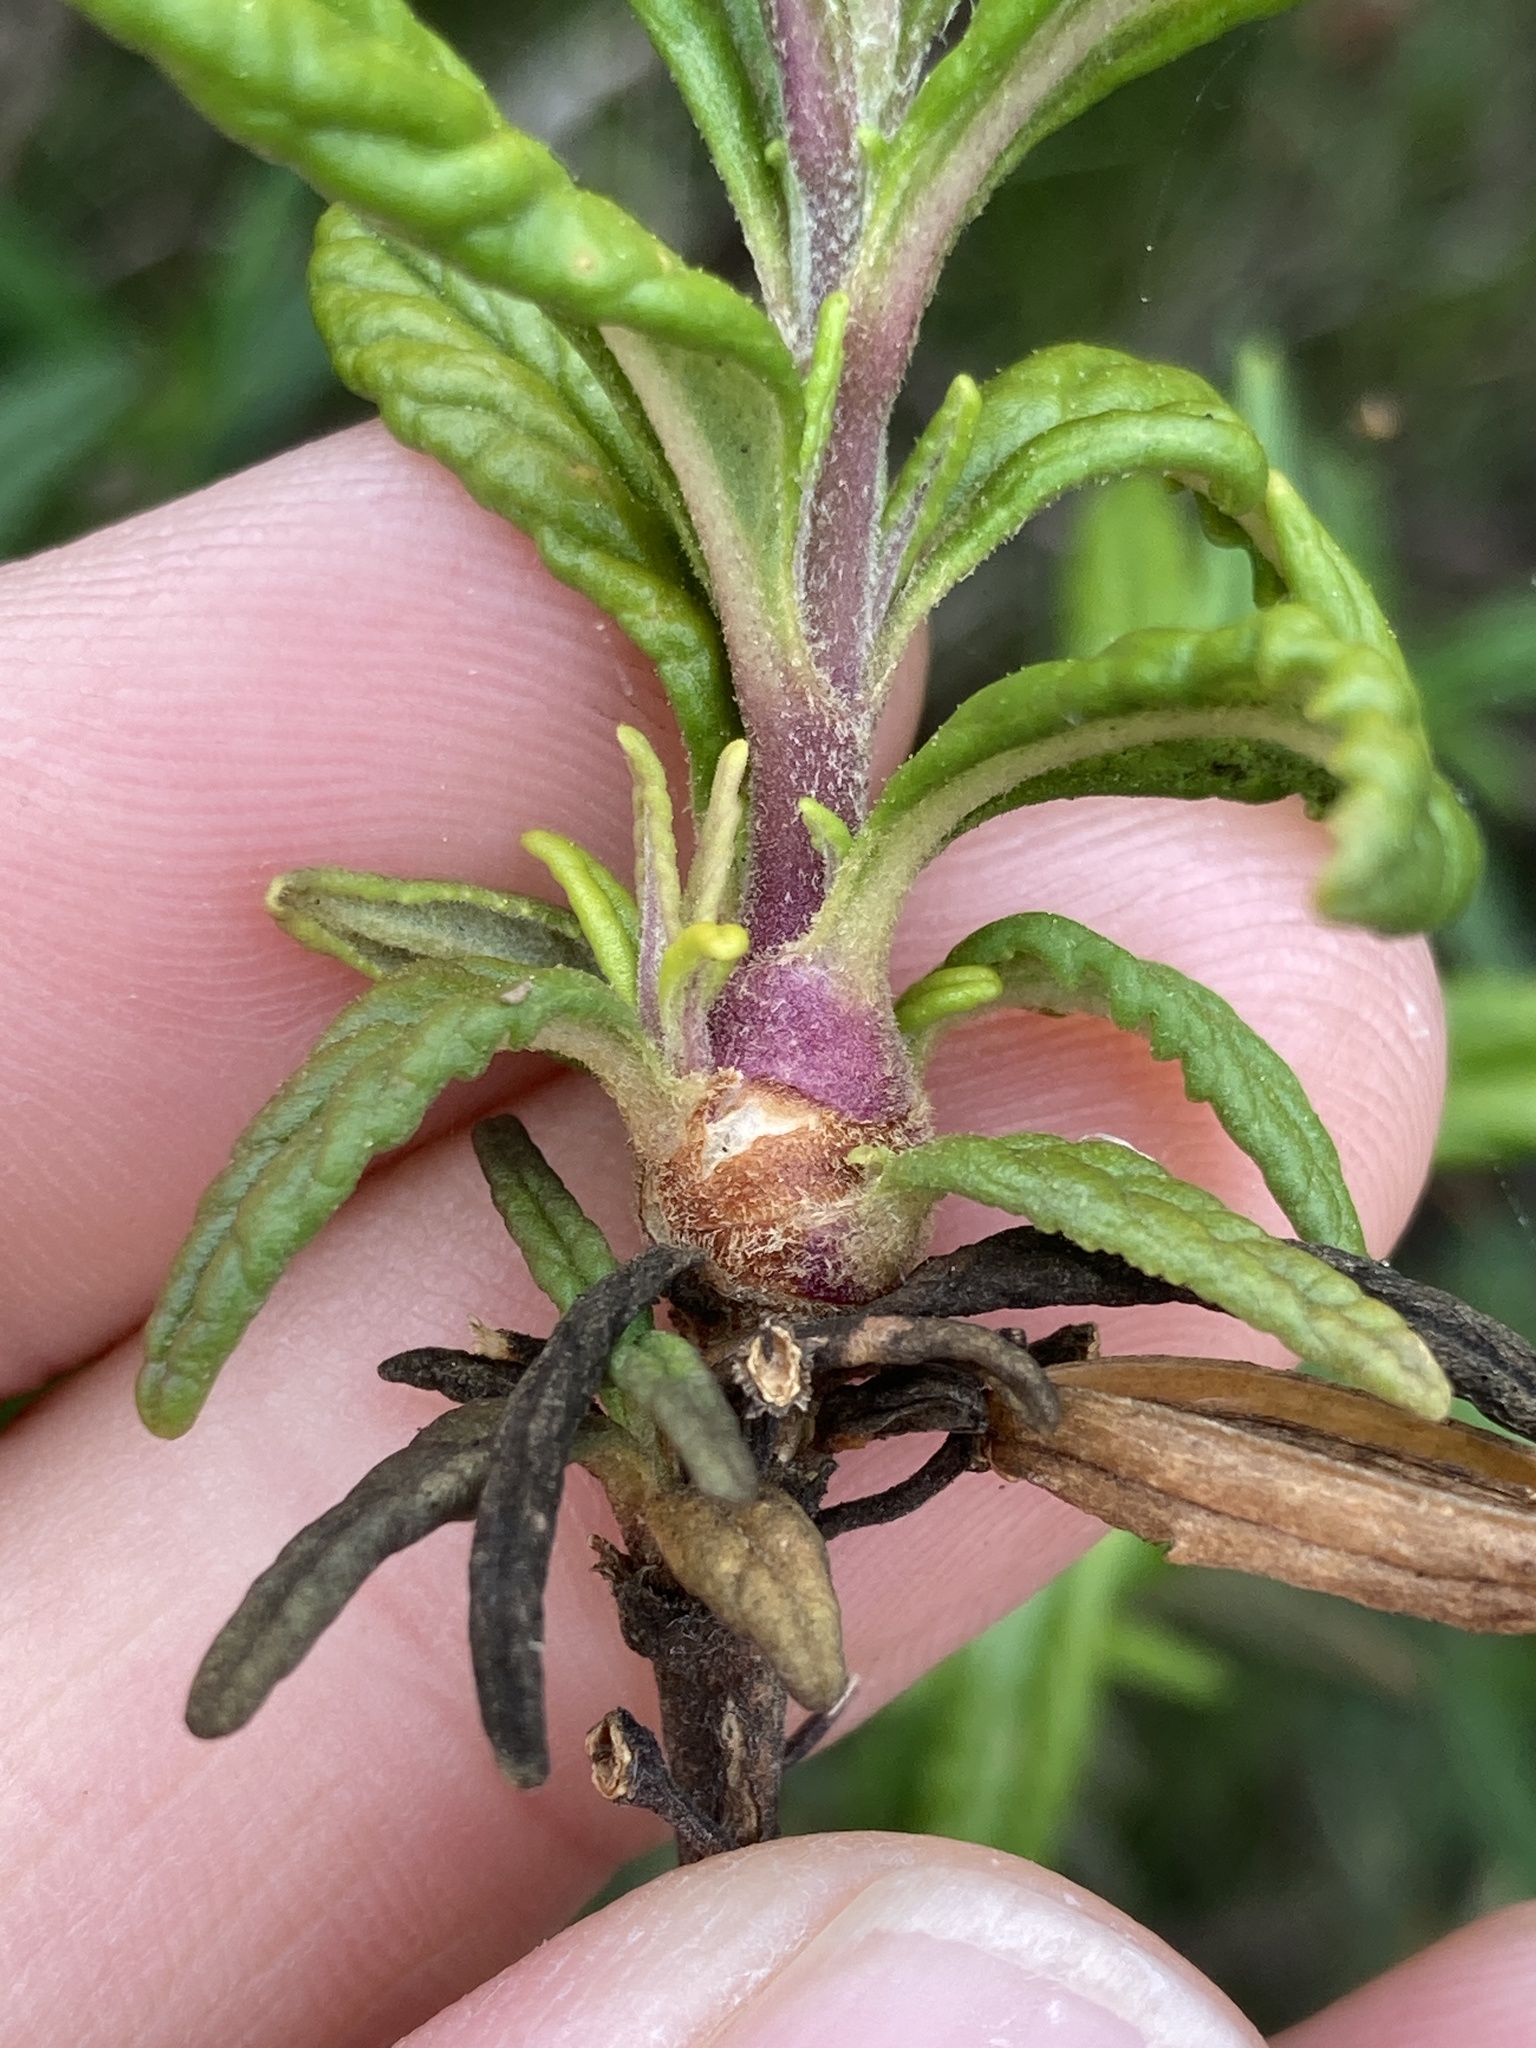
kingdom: Animalia
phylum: Arthropoda
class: Insecta
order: Diptera
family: Cecidomyiidae
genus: Neolasioptera
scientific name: Neolasioptera mimuli
